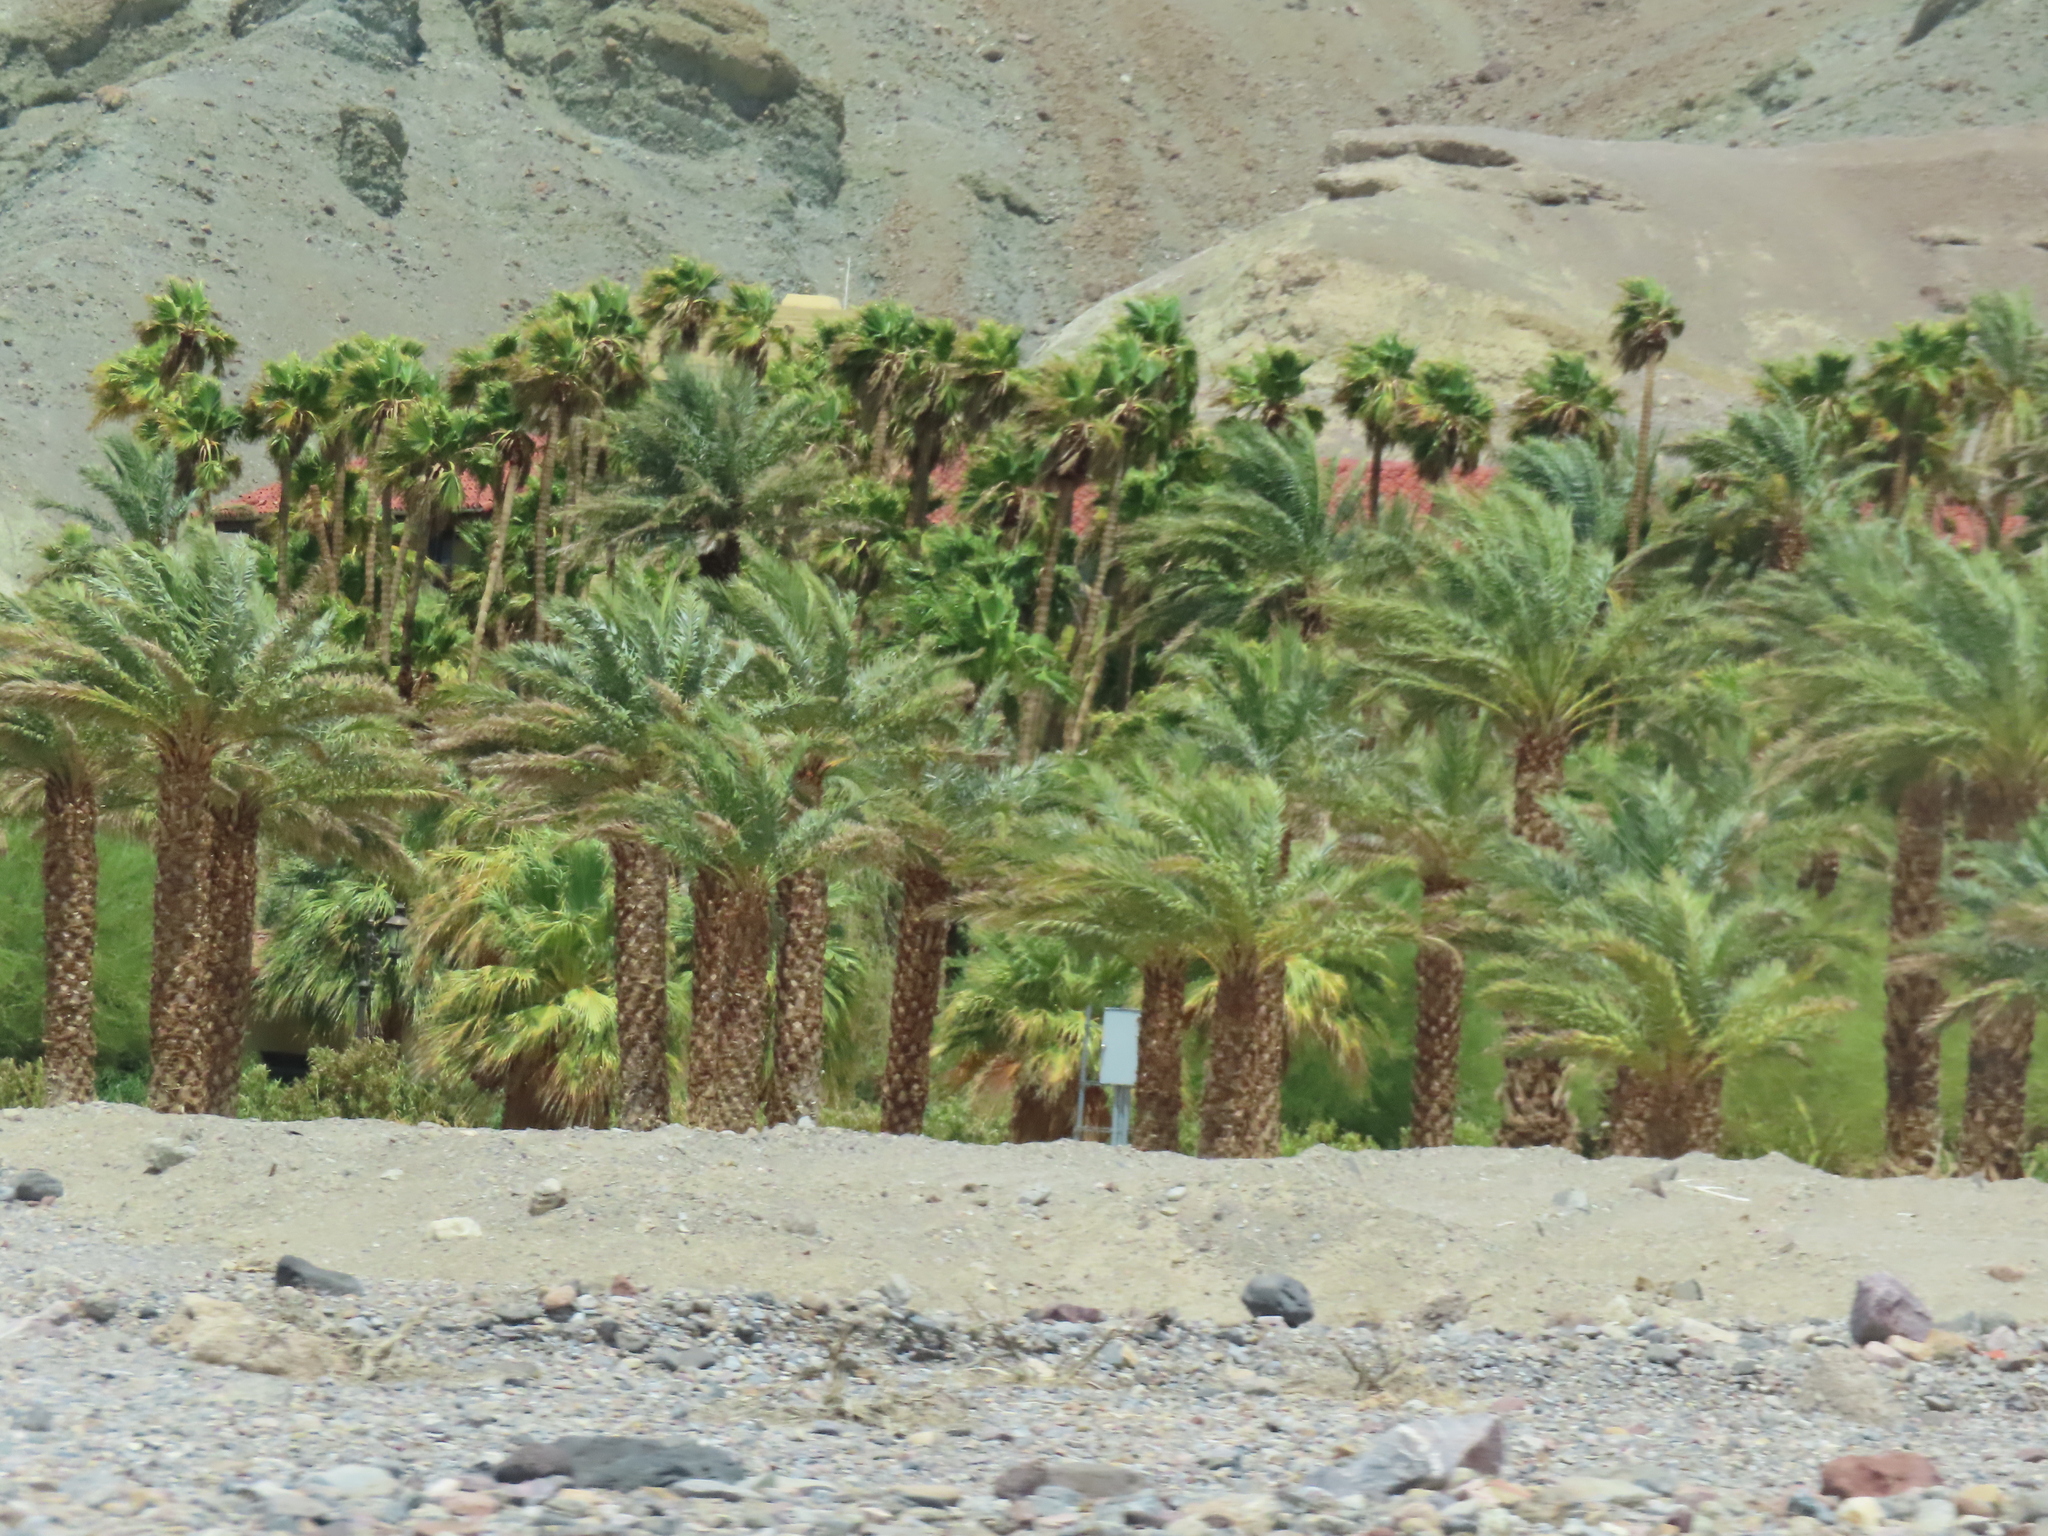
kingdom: Plantae
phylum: Tracheophyta
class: Liliopsida
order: Arecales
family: Arecaceae
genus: Phoenix
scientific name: Phoenix dactylifera
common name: Date palm
